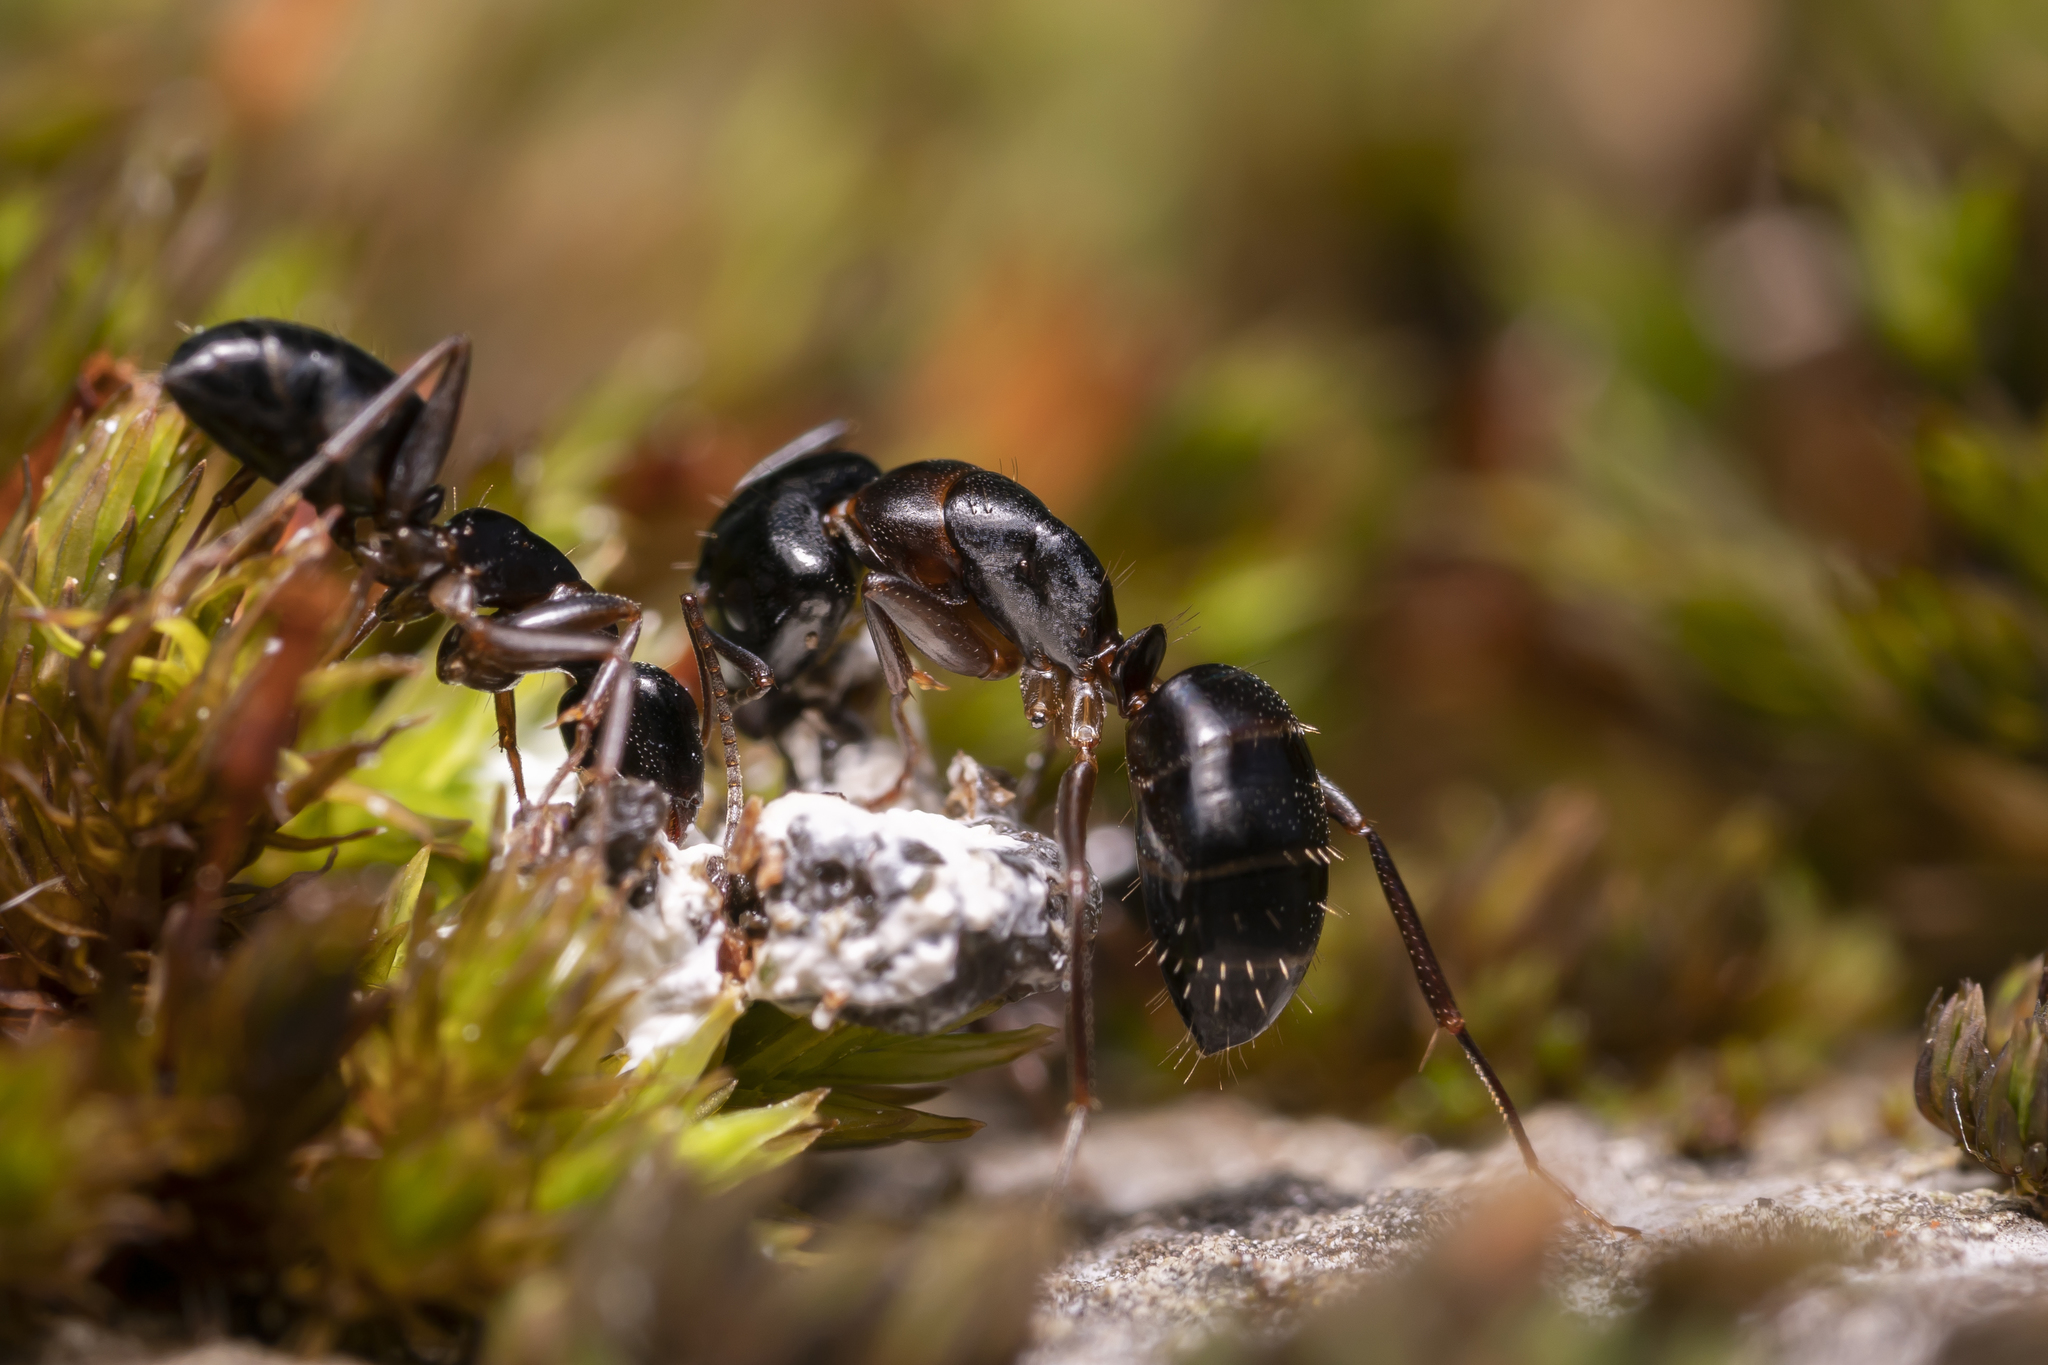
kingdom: Animalia
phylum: Arthropoda
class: Insecta
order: Hymenoptera
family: Formicidae
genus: Camponotus
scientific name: Camponotus fallax
